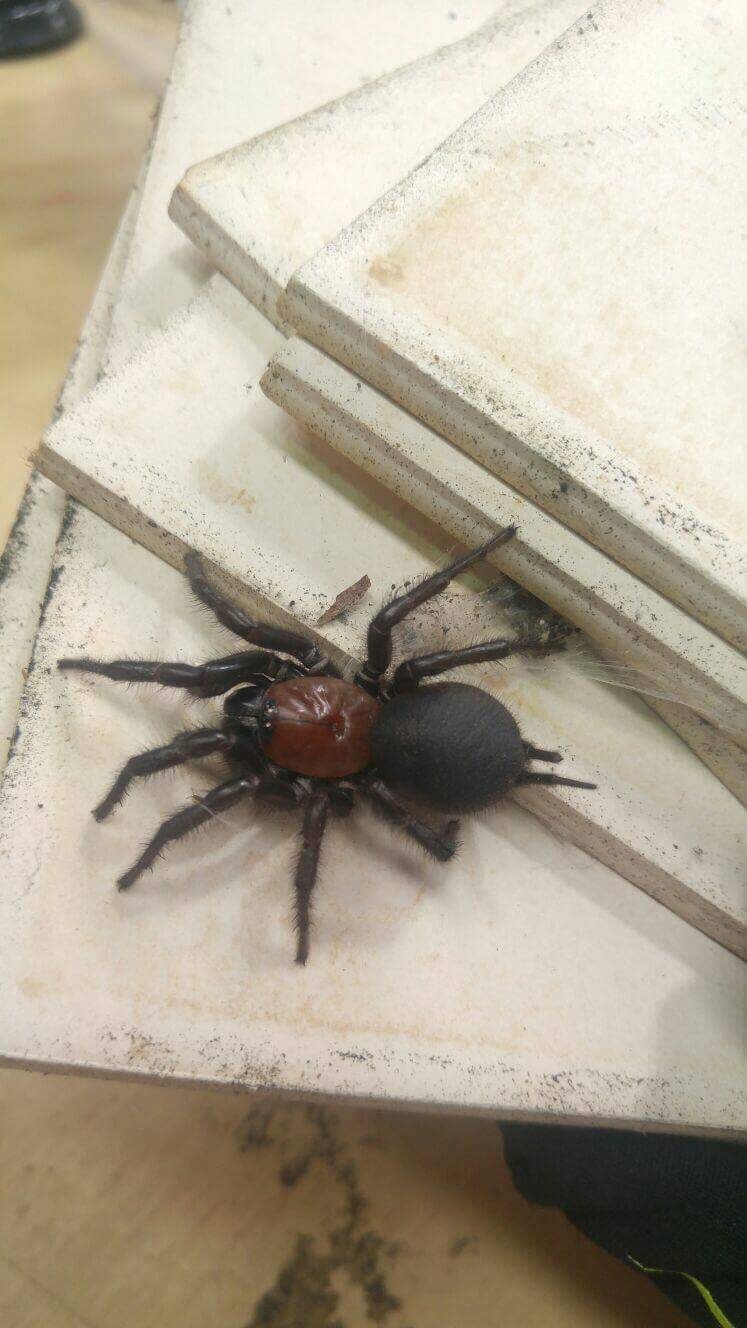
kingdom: Animalia
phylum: Arthropoda
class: Arachnida
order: Araneae
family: Porrhothelidae
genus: Porrhothele
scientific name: Porrhothele antipodiana
